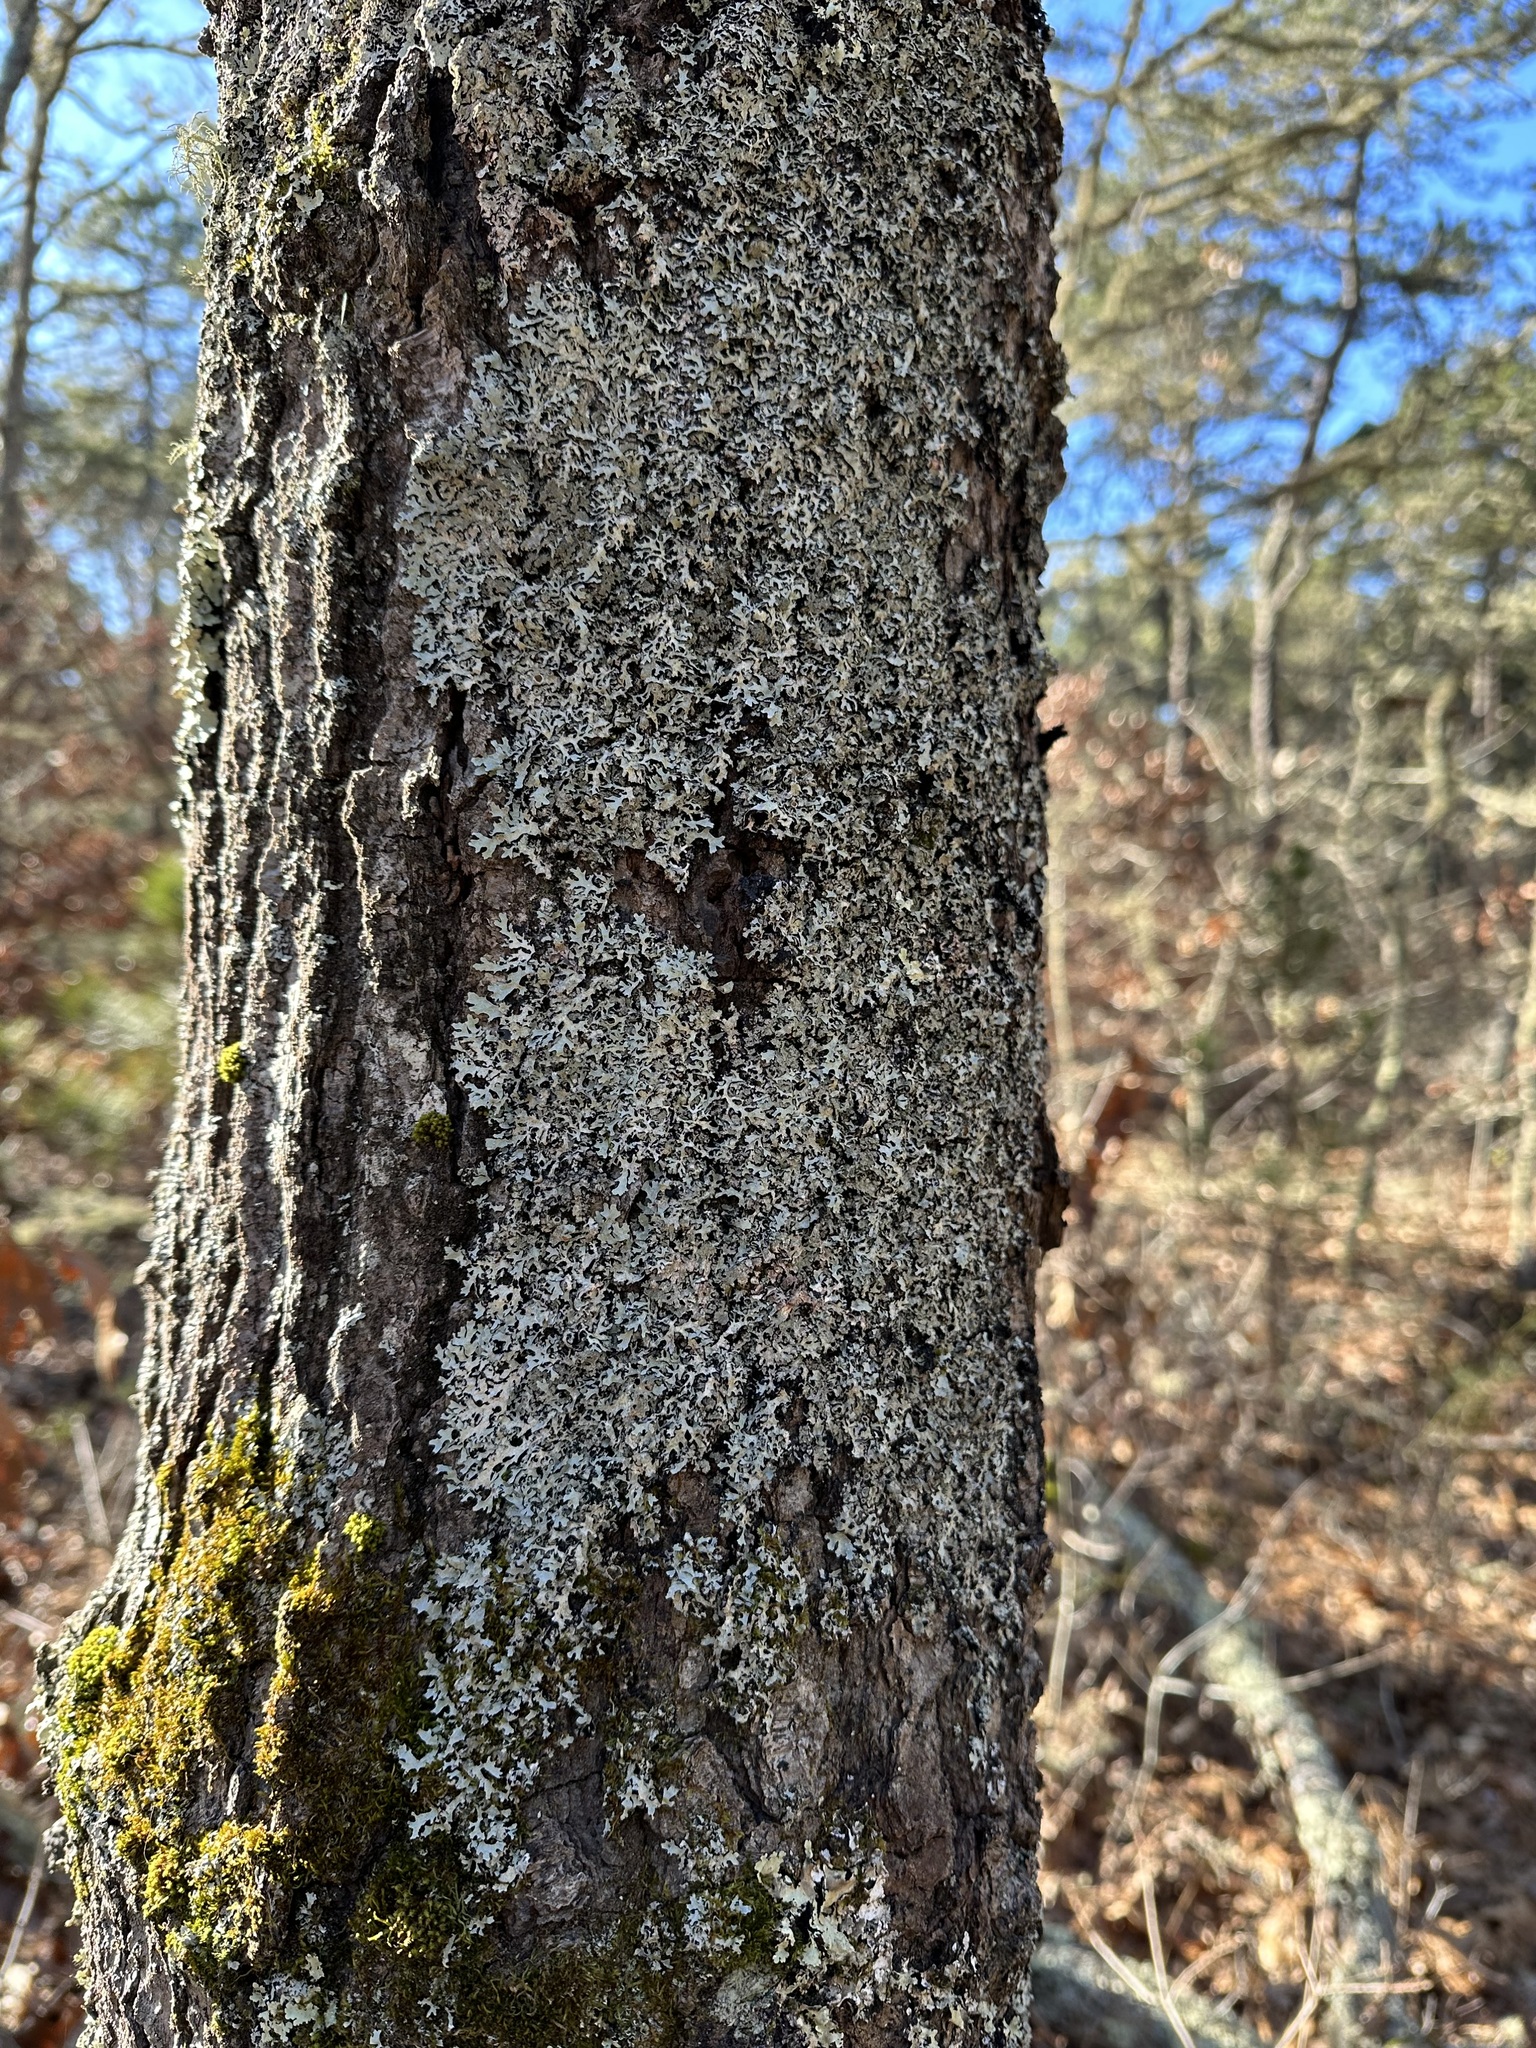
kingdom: Plantae
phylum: Bryophyta
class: Bryopsida
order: Orthotrichales
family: Orthotrichaceae
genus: Ulota
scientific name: Ulota crispa
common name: Crisped pincushion moss
